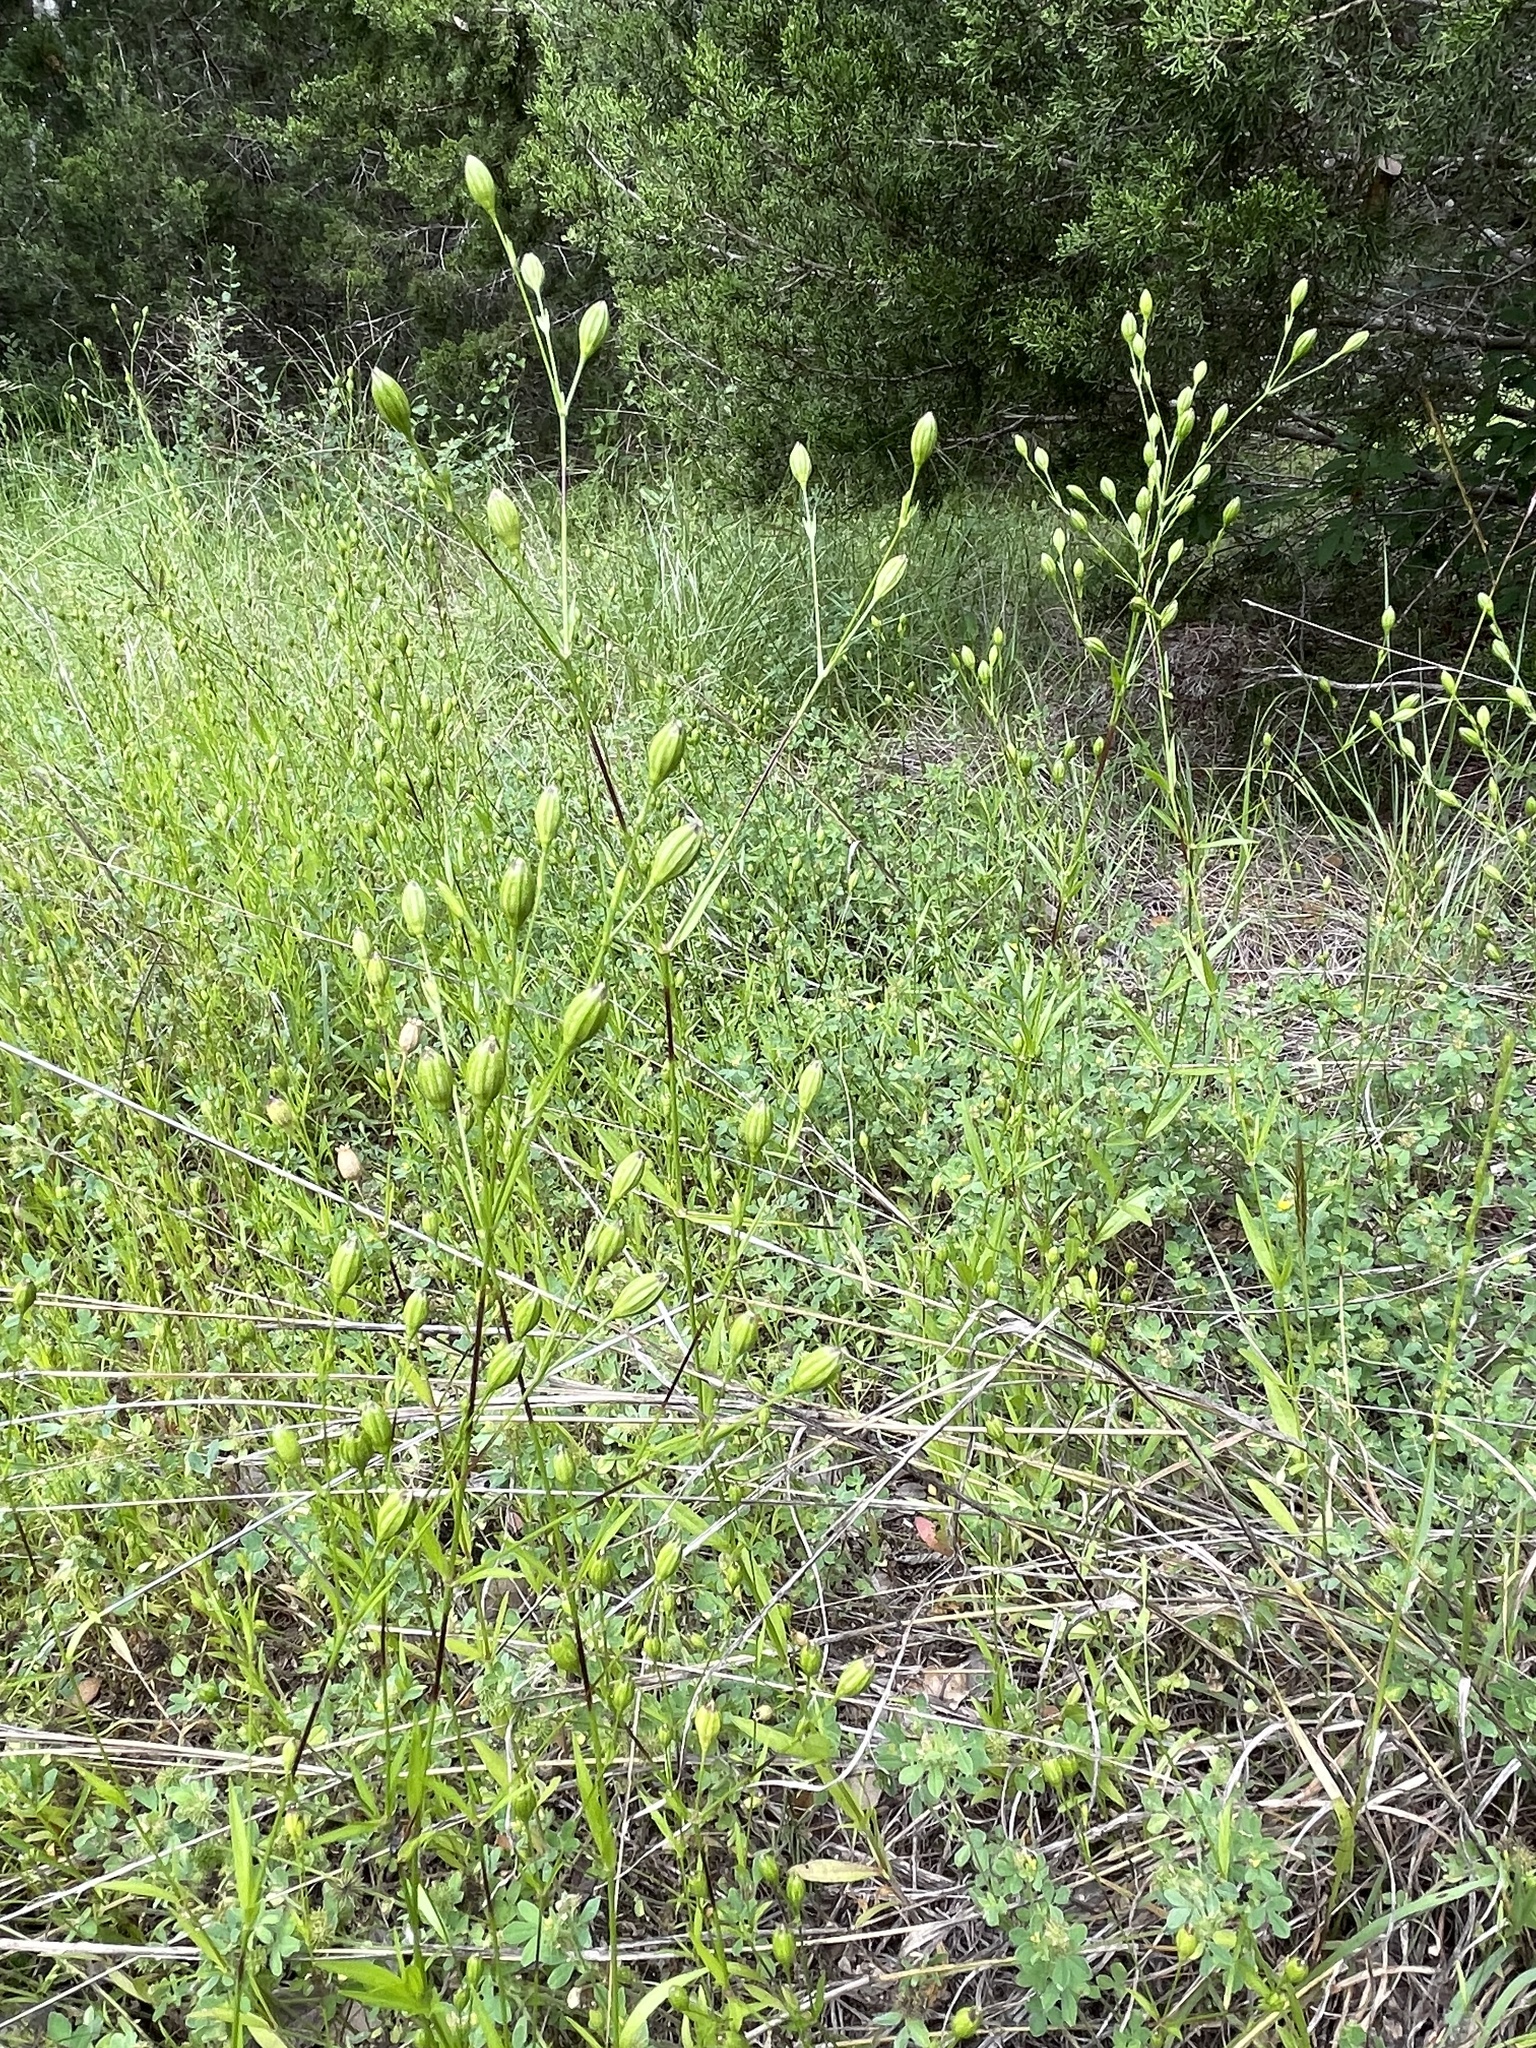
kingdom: Plantae
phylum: Tracheophyta
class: Magnoliopsida
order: Caryophyllales
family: Caryophyllaceae
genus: Silene
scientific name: Silene antirrhina
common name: Sleepy catchfly
